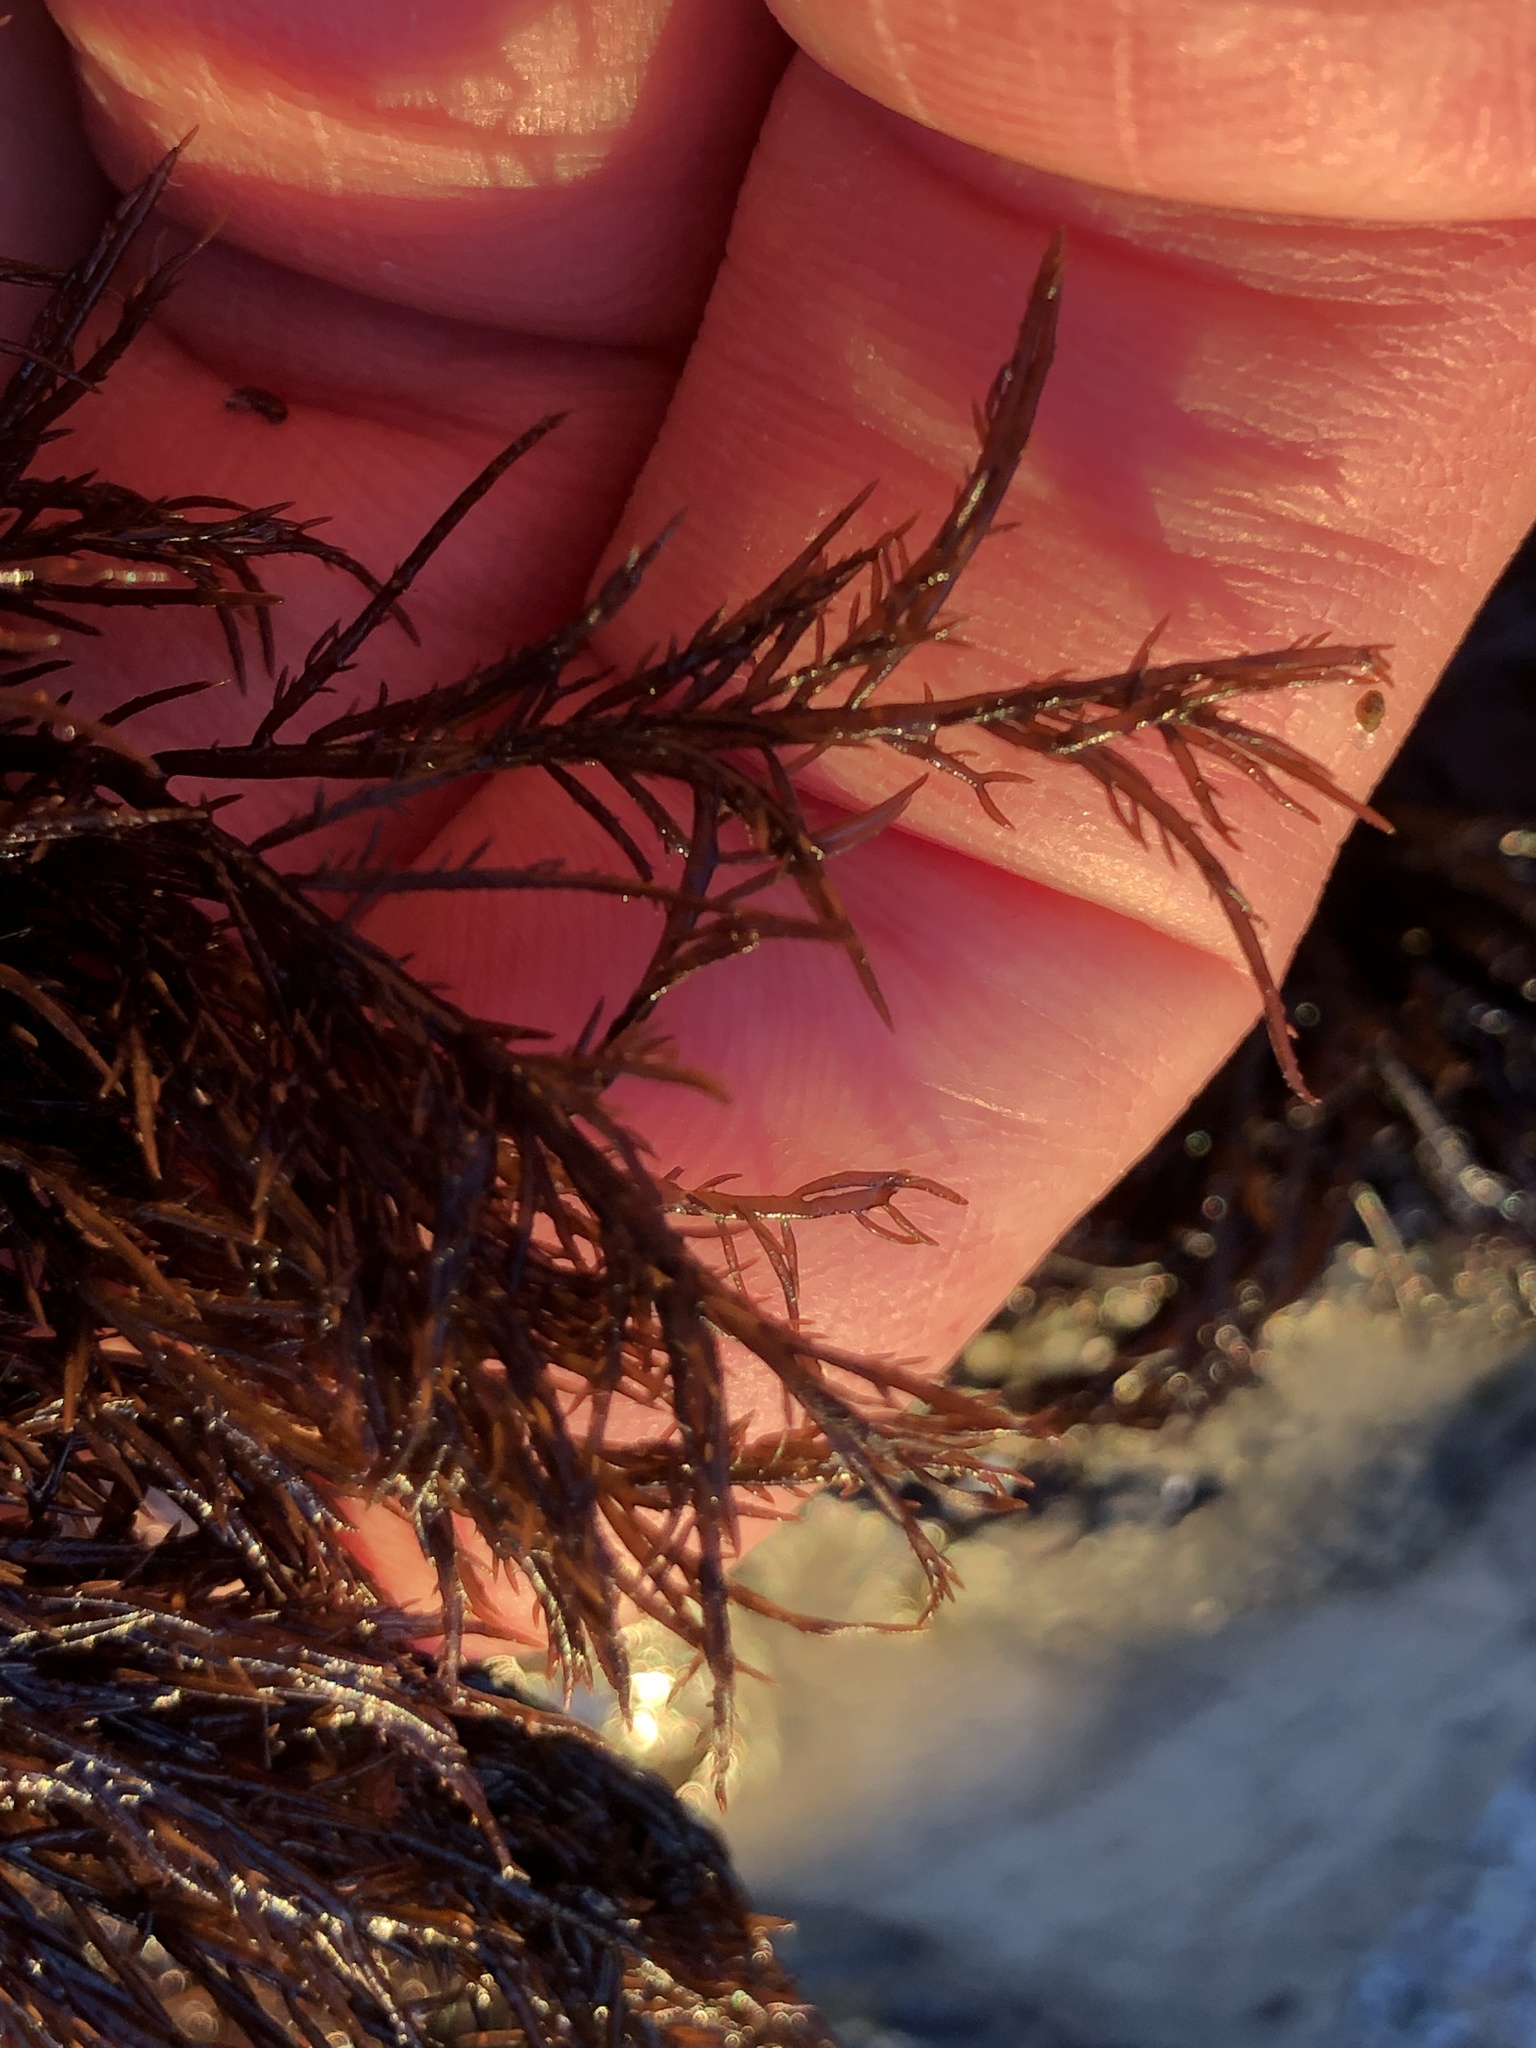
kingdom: Plantae
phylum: Rhodophyta
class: Florideophyceae
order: Gigartinales
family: Dumontiaceae
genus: Cryptosiphonia
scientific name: Cryptosiphonia woodii
